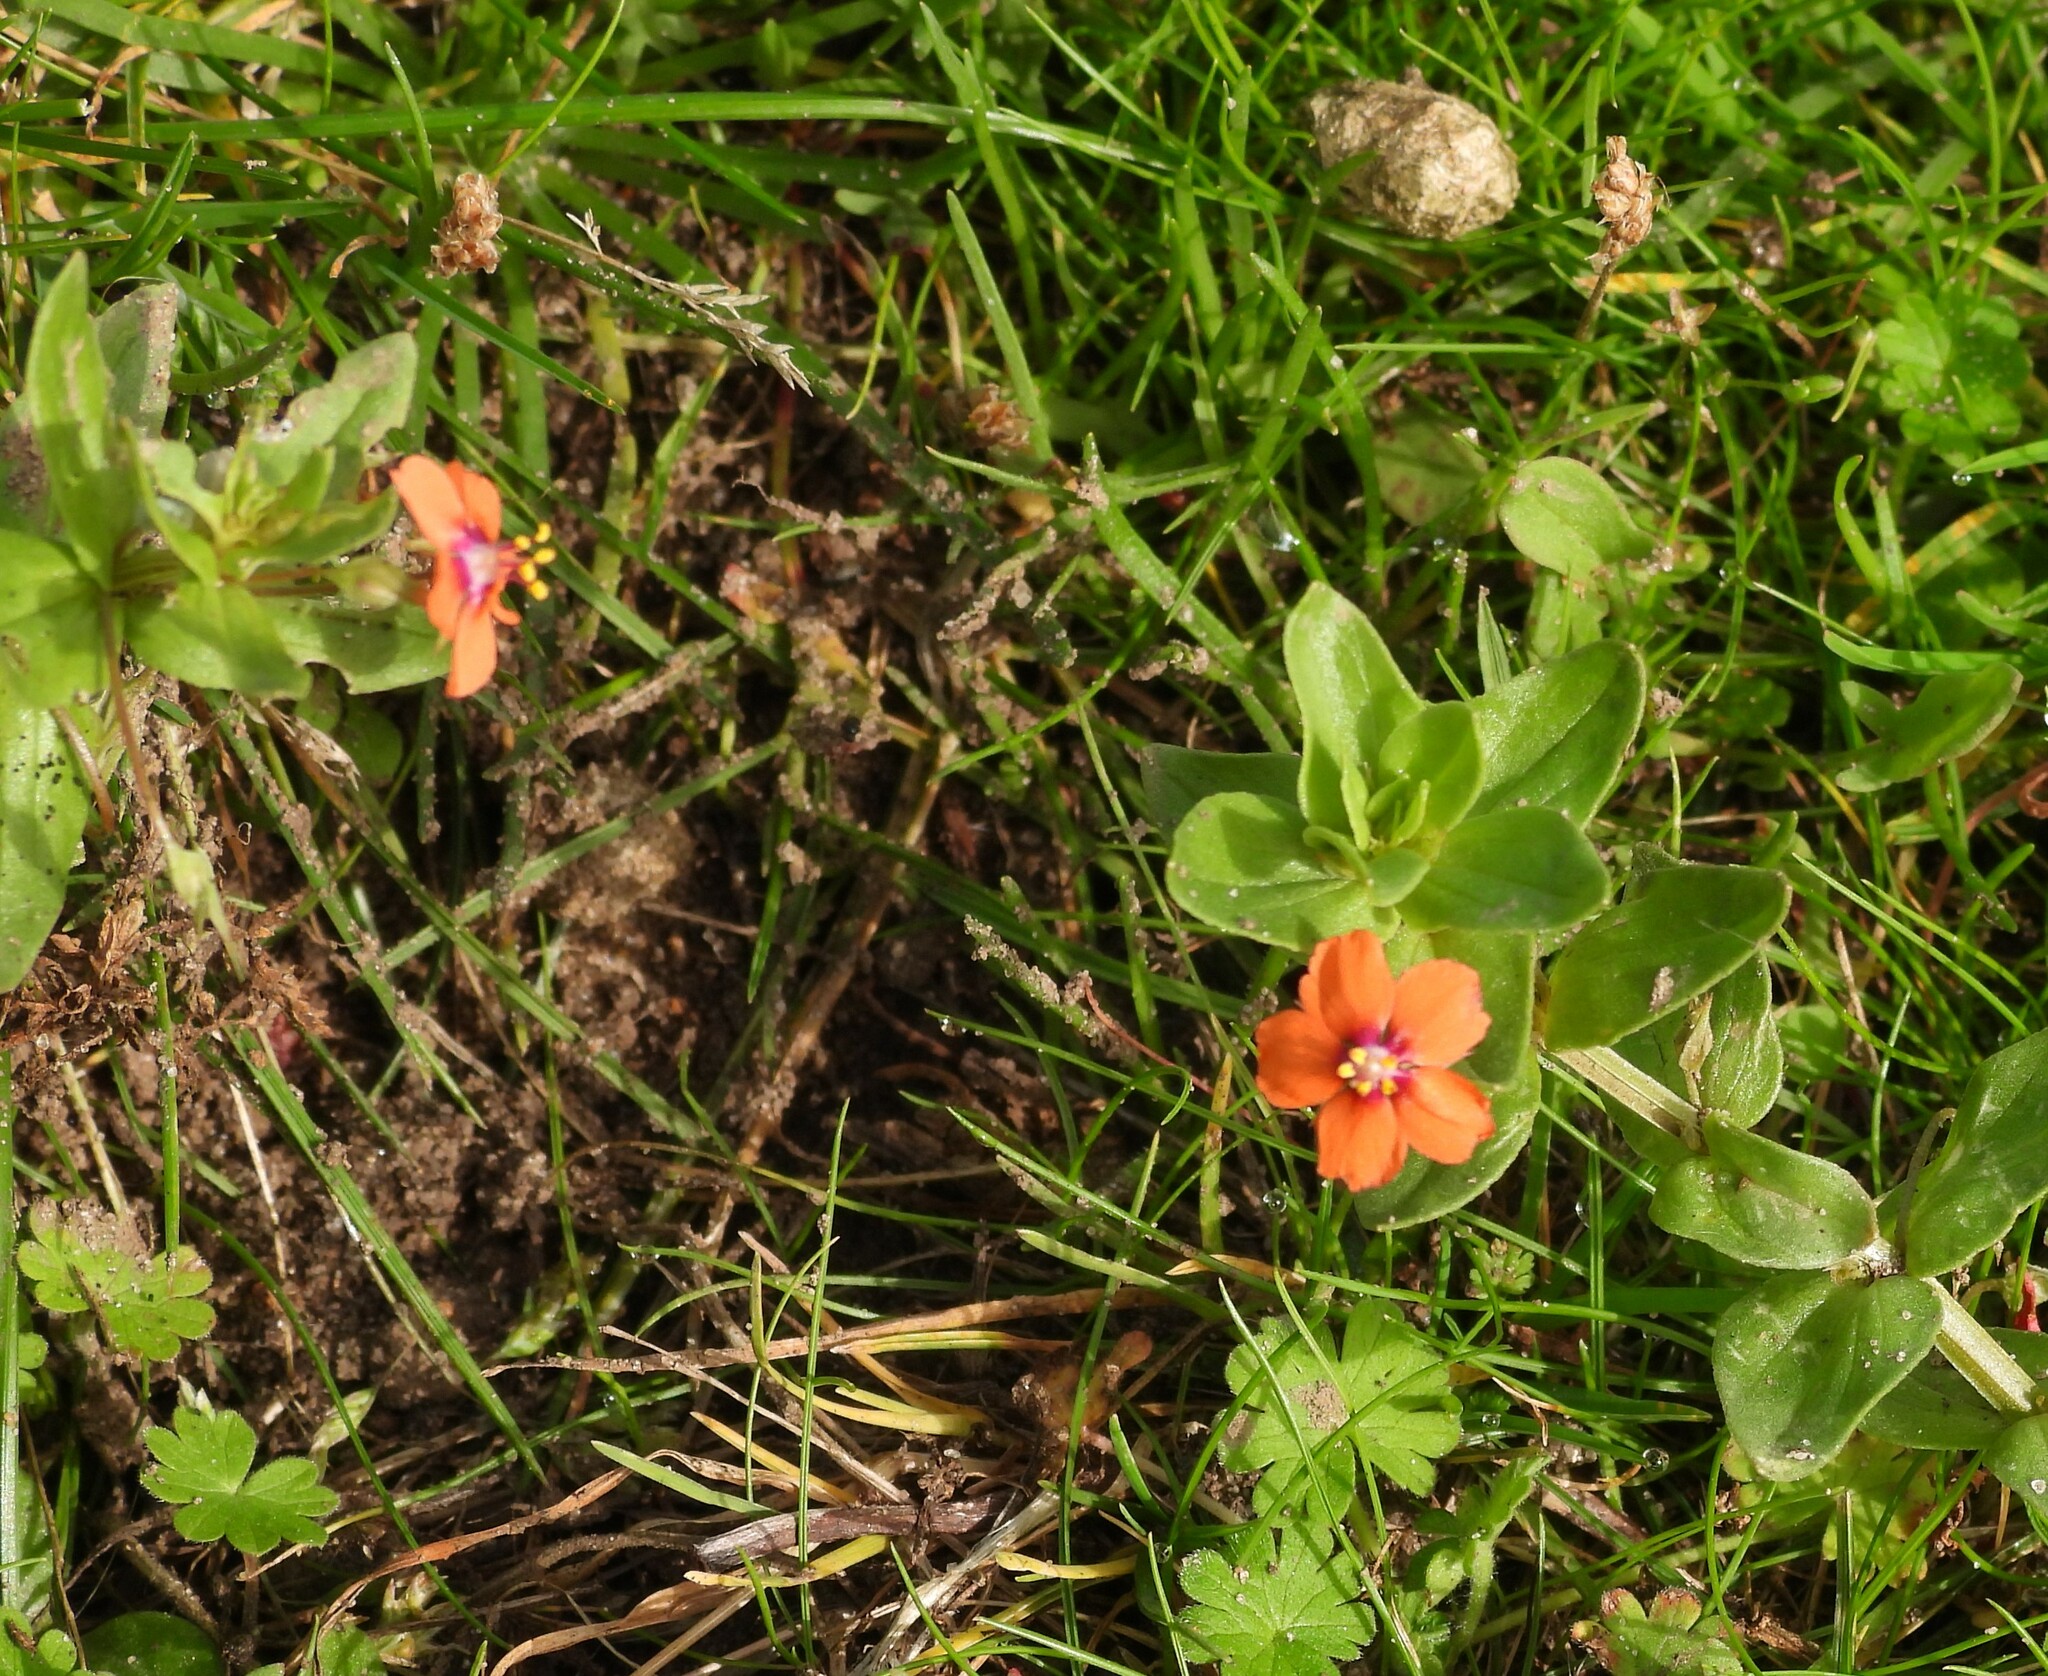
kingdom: Plantae
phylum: Tracheophyta
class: Magnoliopsida
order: Ericales
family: Primulaceae
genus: Lysimachia
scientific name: Lysimachia arvensis
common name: Scarlet pimpernel
